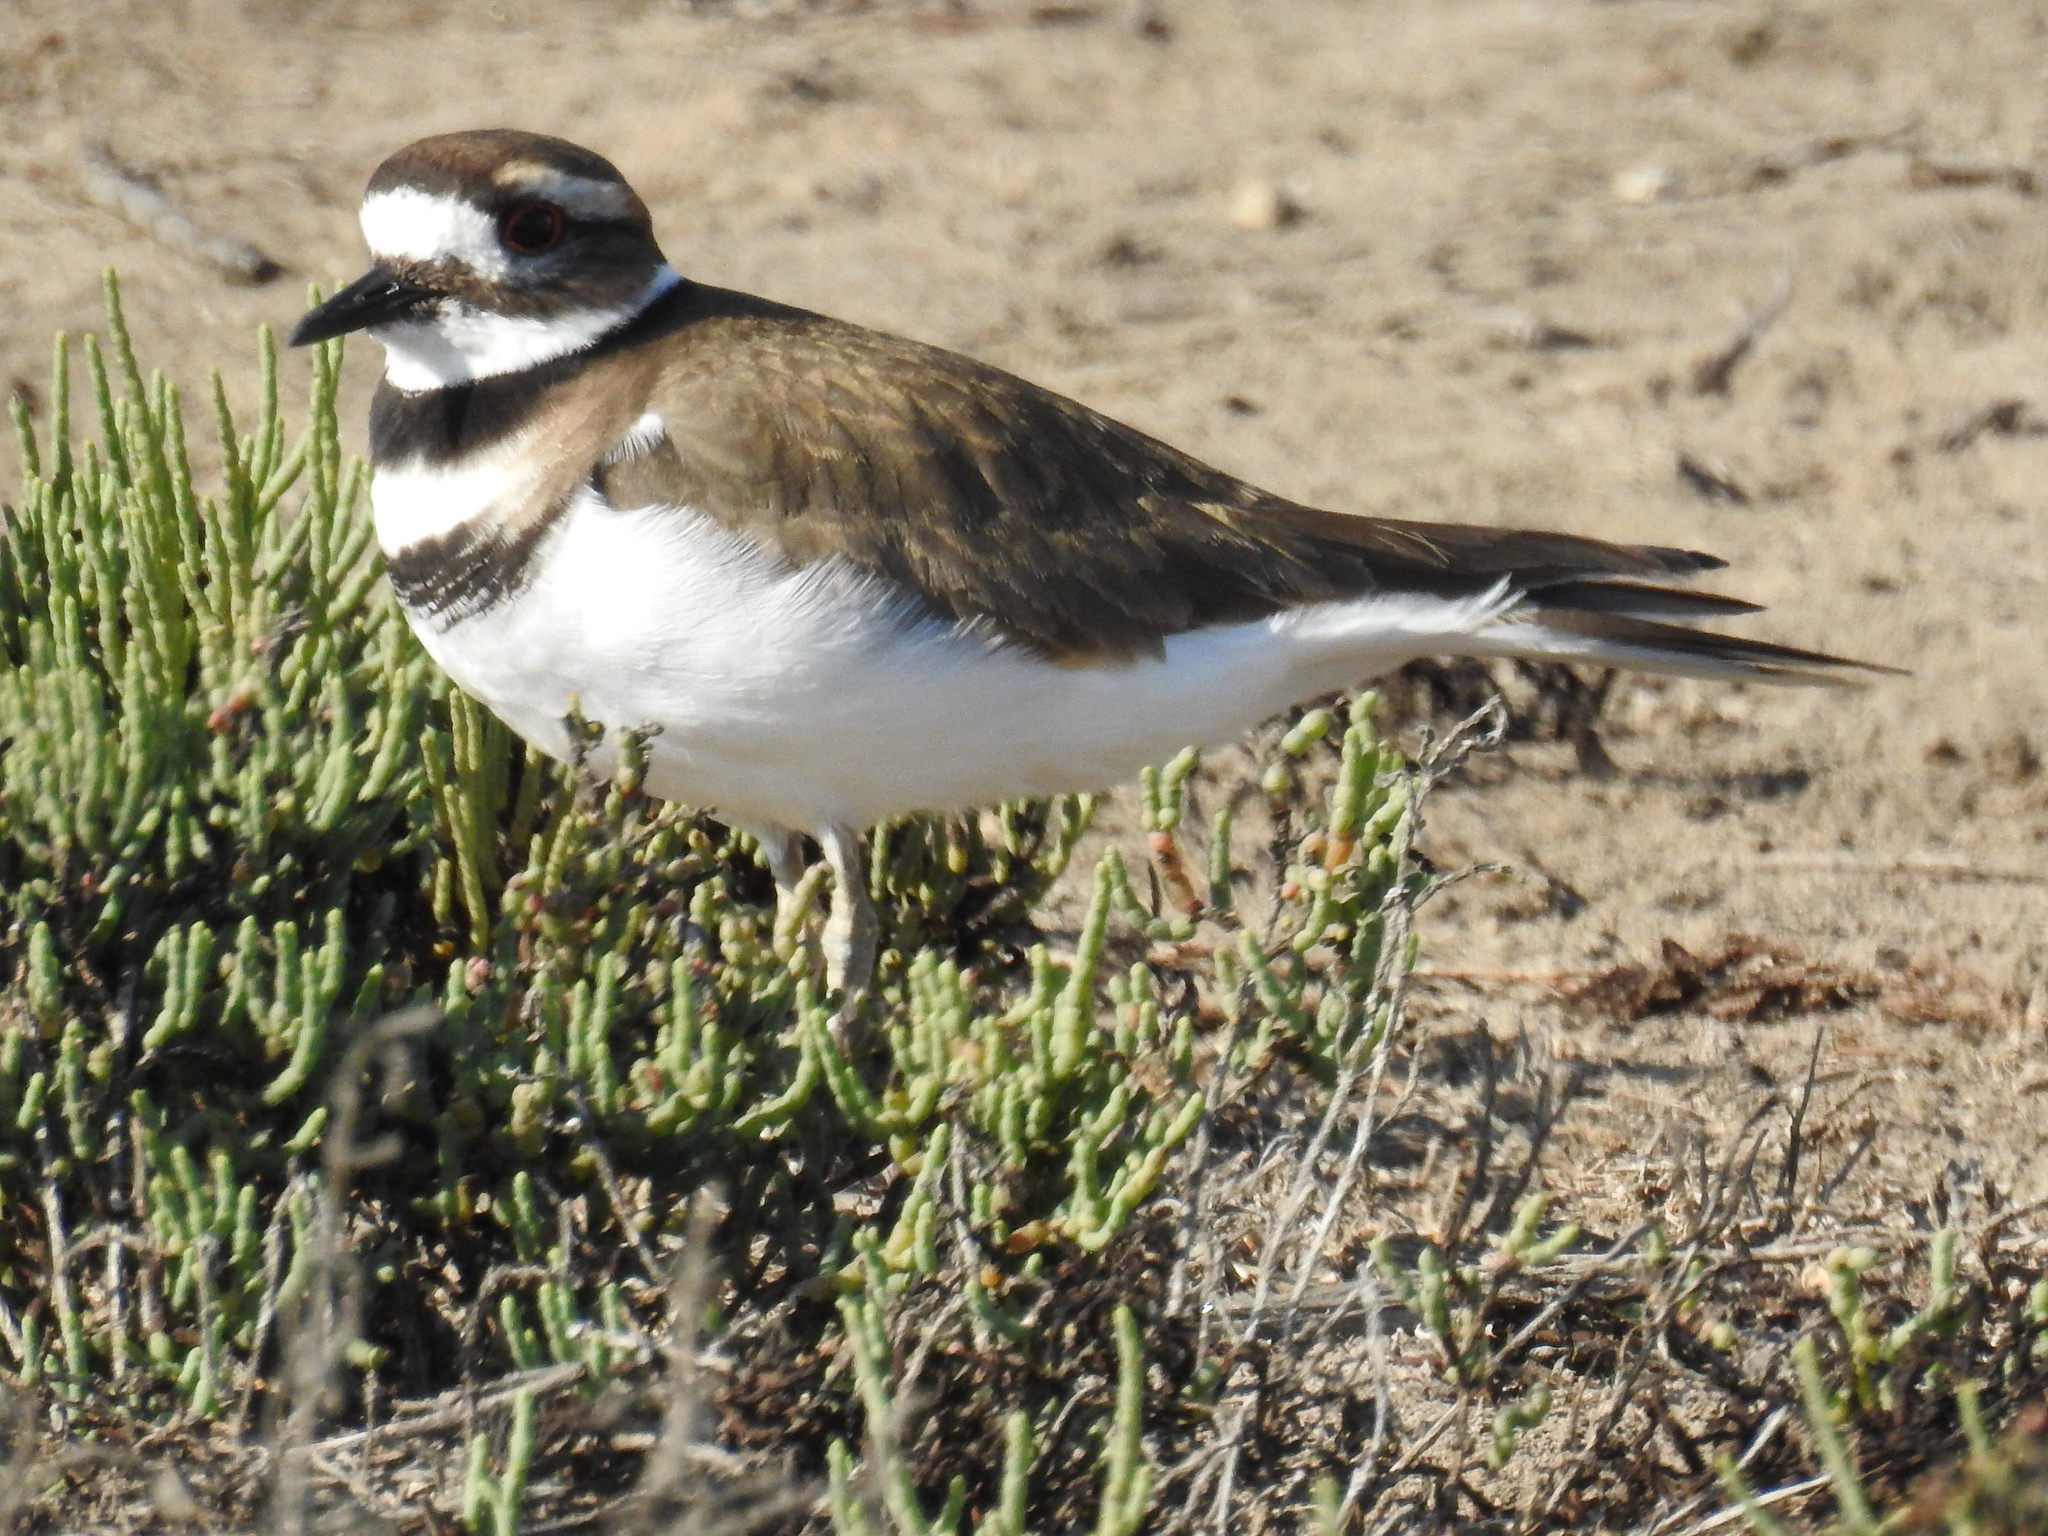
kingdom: Animalia
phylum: Chordata
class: Aves
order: Charadriiformes
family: Charadriidae
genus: Charadrius
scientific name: Charadrius vociferus
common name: Killdeer
